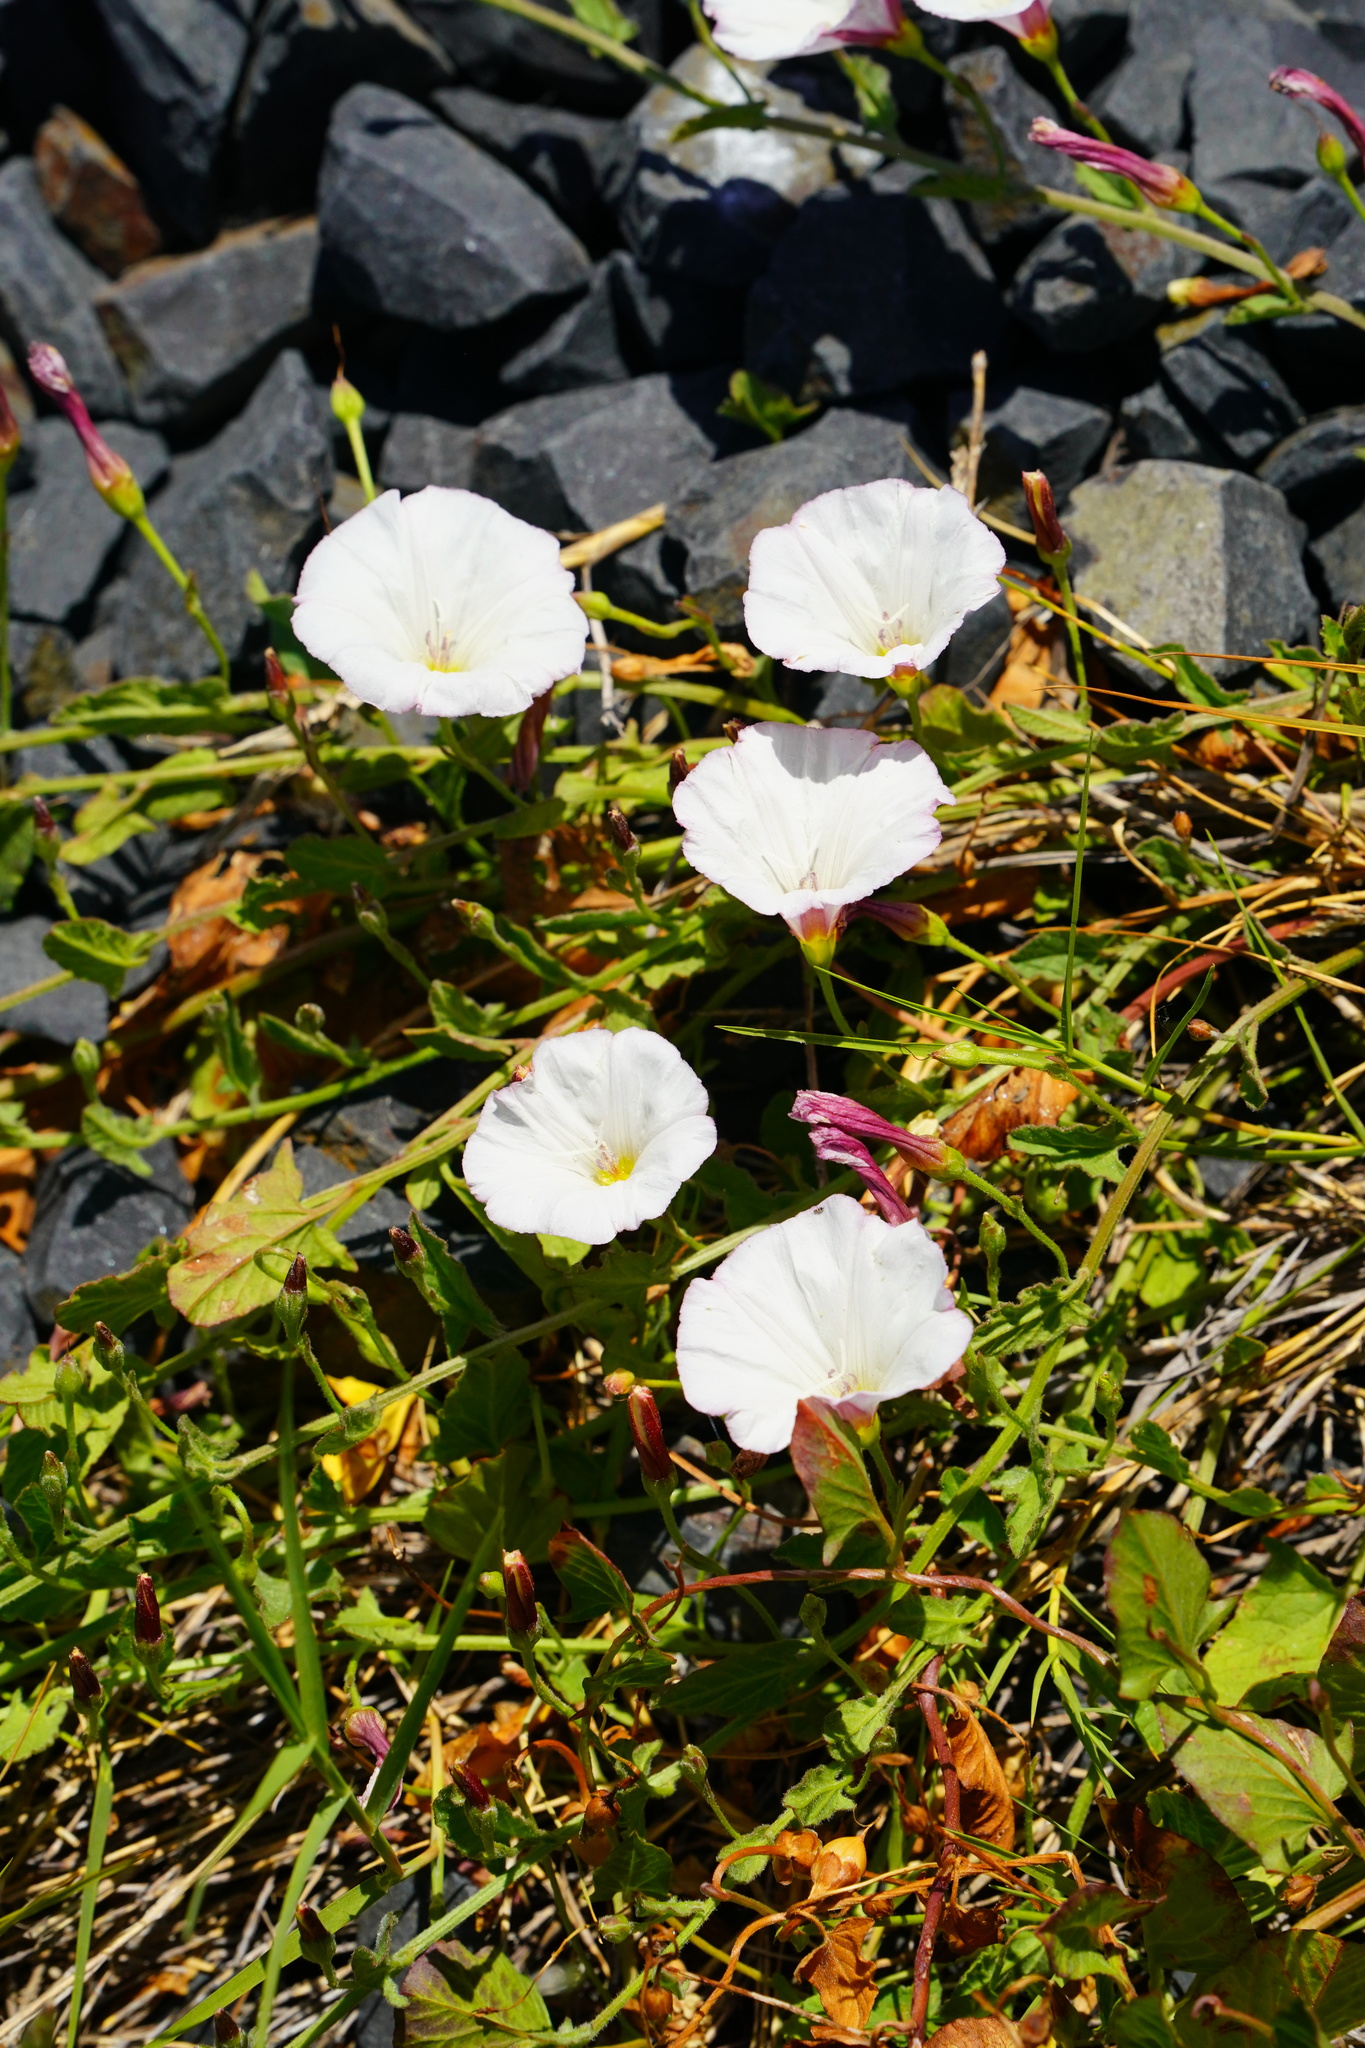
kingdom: Plantae
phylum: Tracheophyta
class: Magnoliopsida
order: Solanales
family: Convolvulaceae
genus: Convolvulus
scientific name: Convolvulus arvensis
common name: Field bindweed
